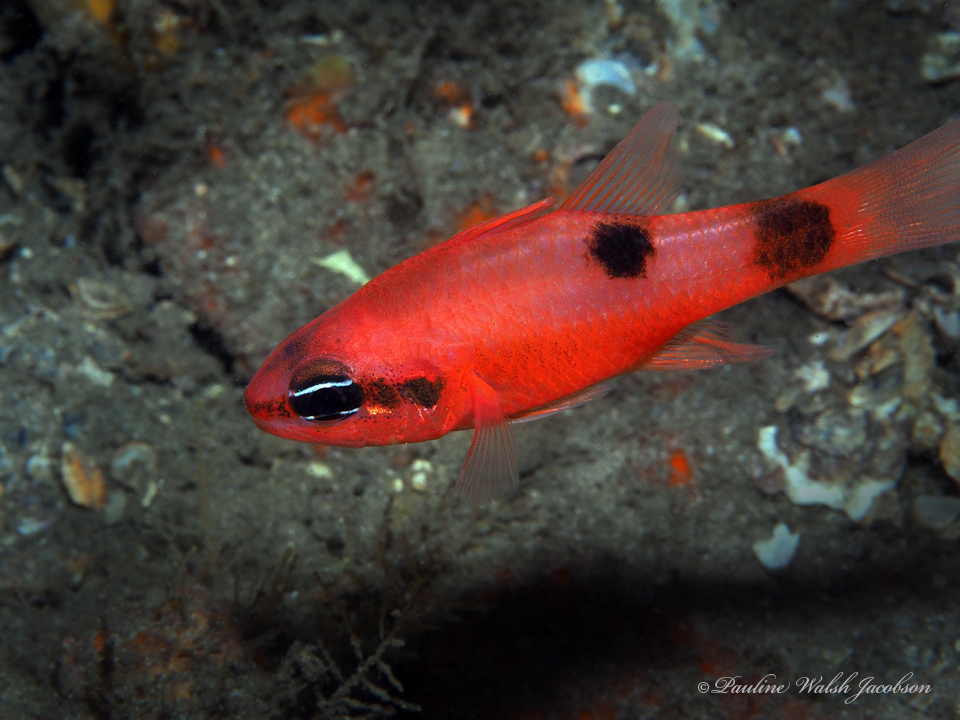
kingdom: Animalia
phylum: Chordata
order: Perciformes
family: Apogonidae
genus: Apogon
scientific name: Apogon maculatus
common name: Flamefish
